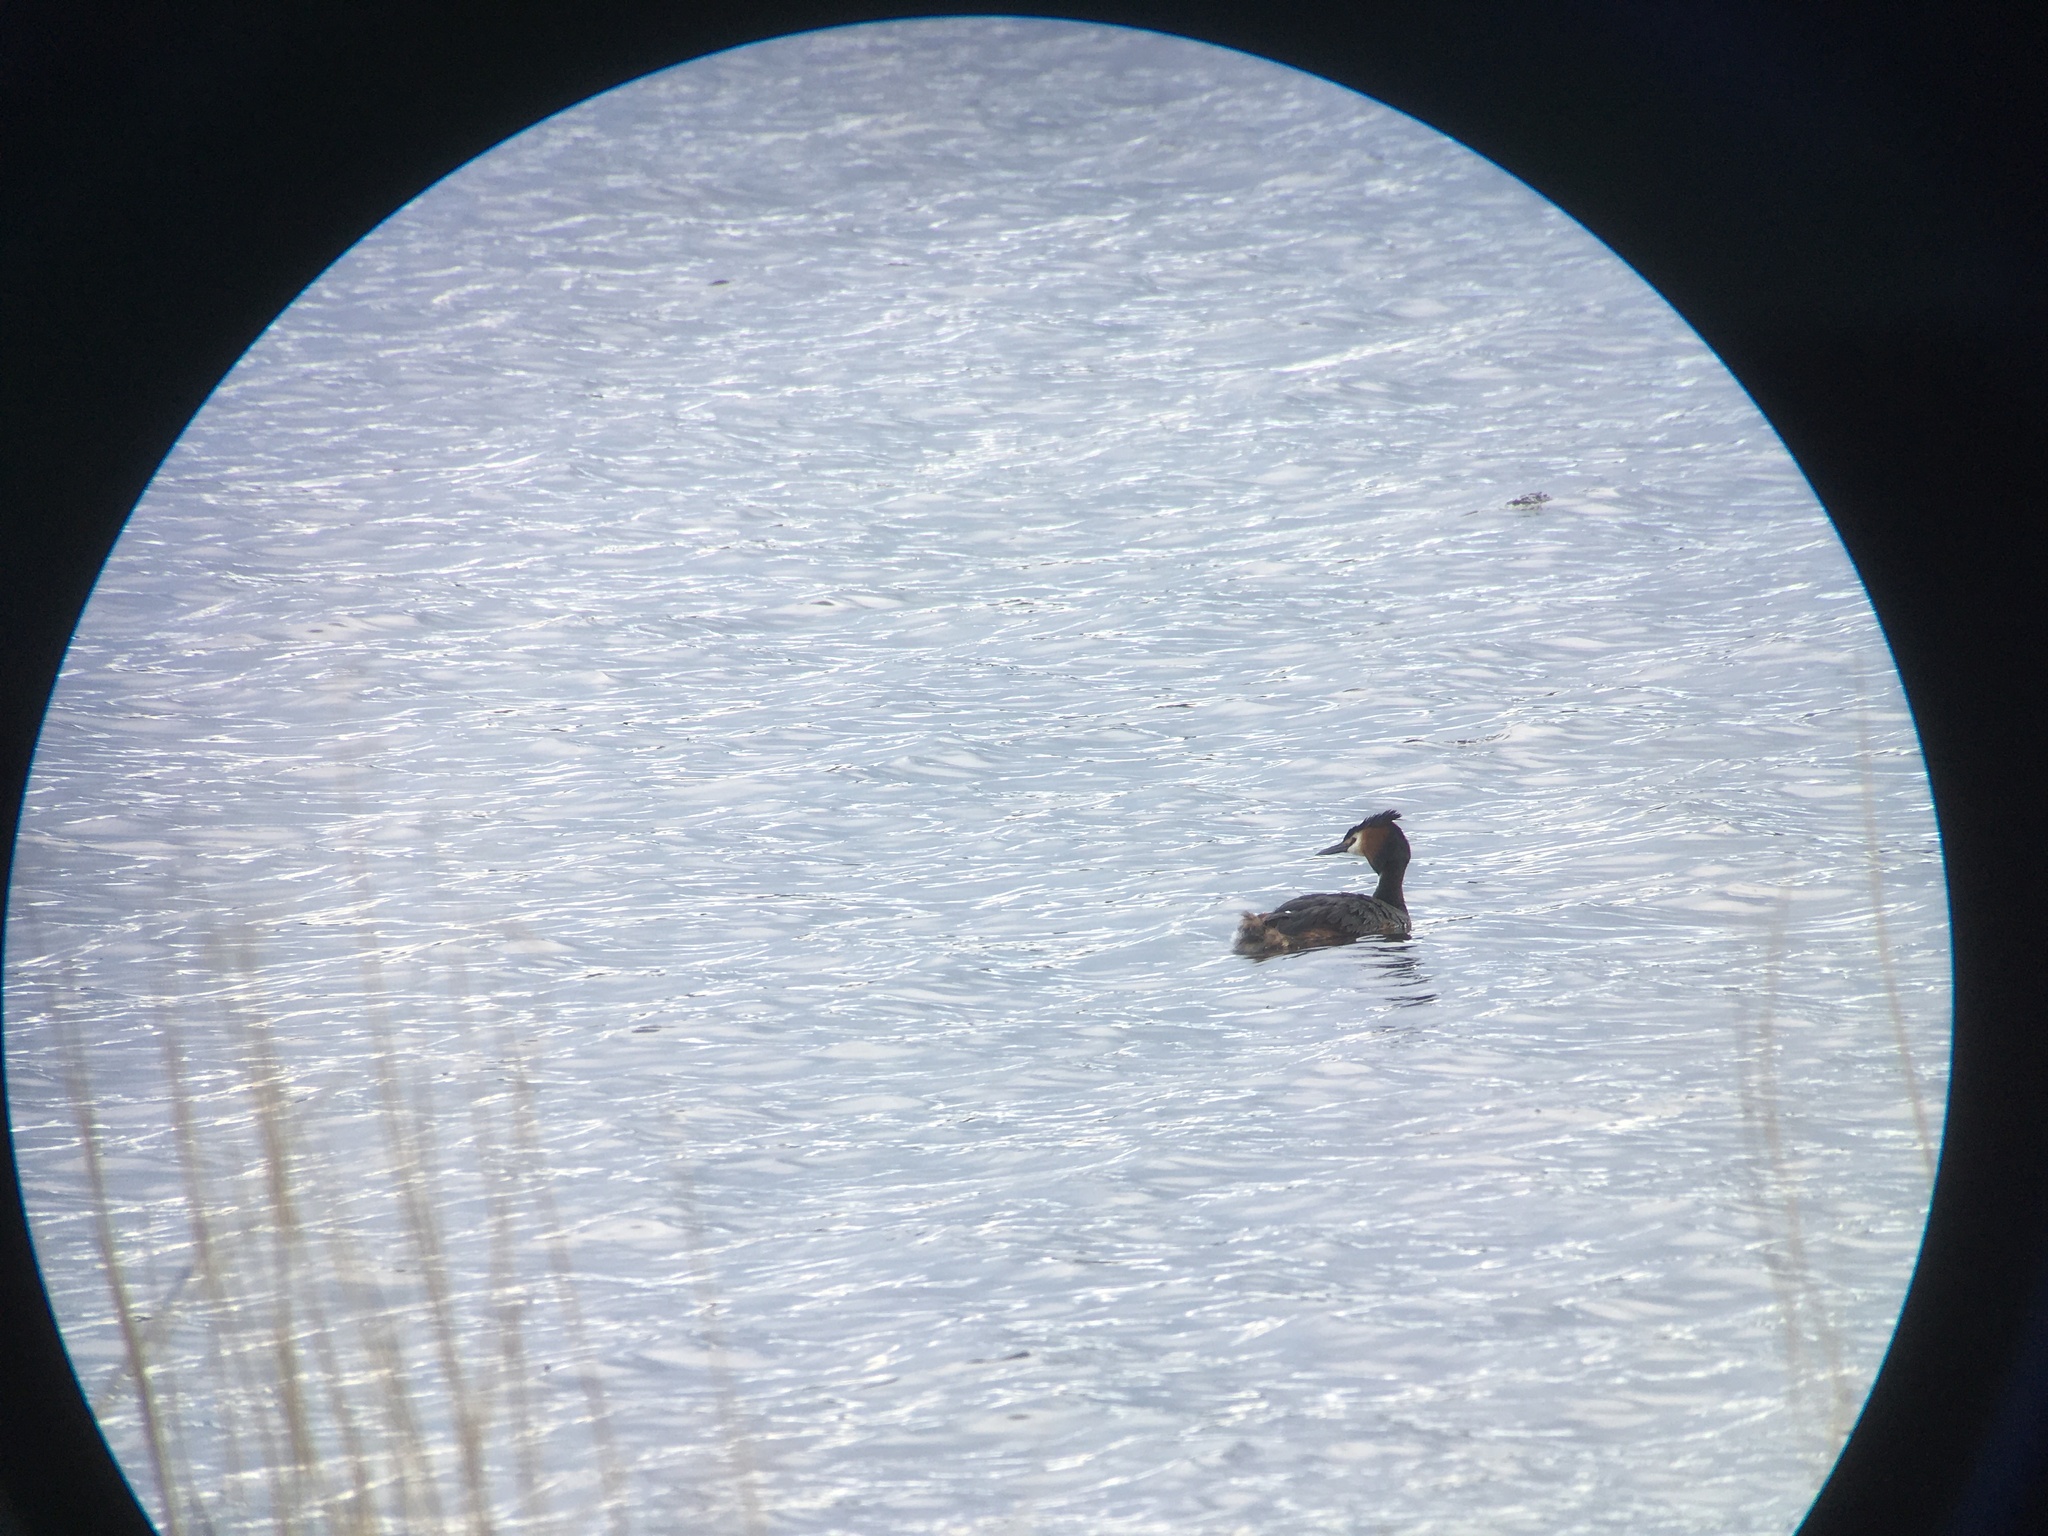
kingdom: Animalia
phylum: Chordata
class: Aves
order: Podicipediformes
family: Podicipedidae
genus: Podiceps
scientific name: Podiceps cristatus
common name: Great crested grebe
